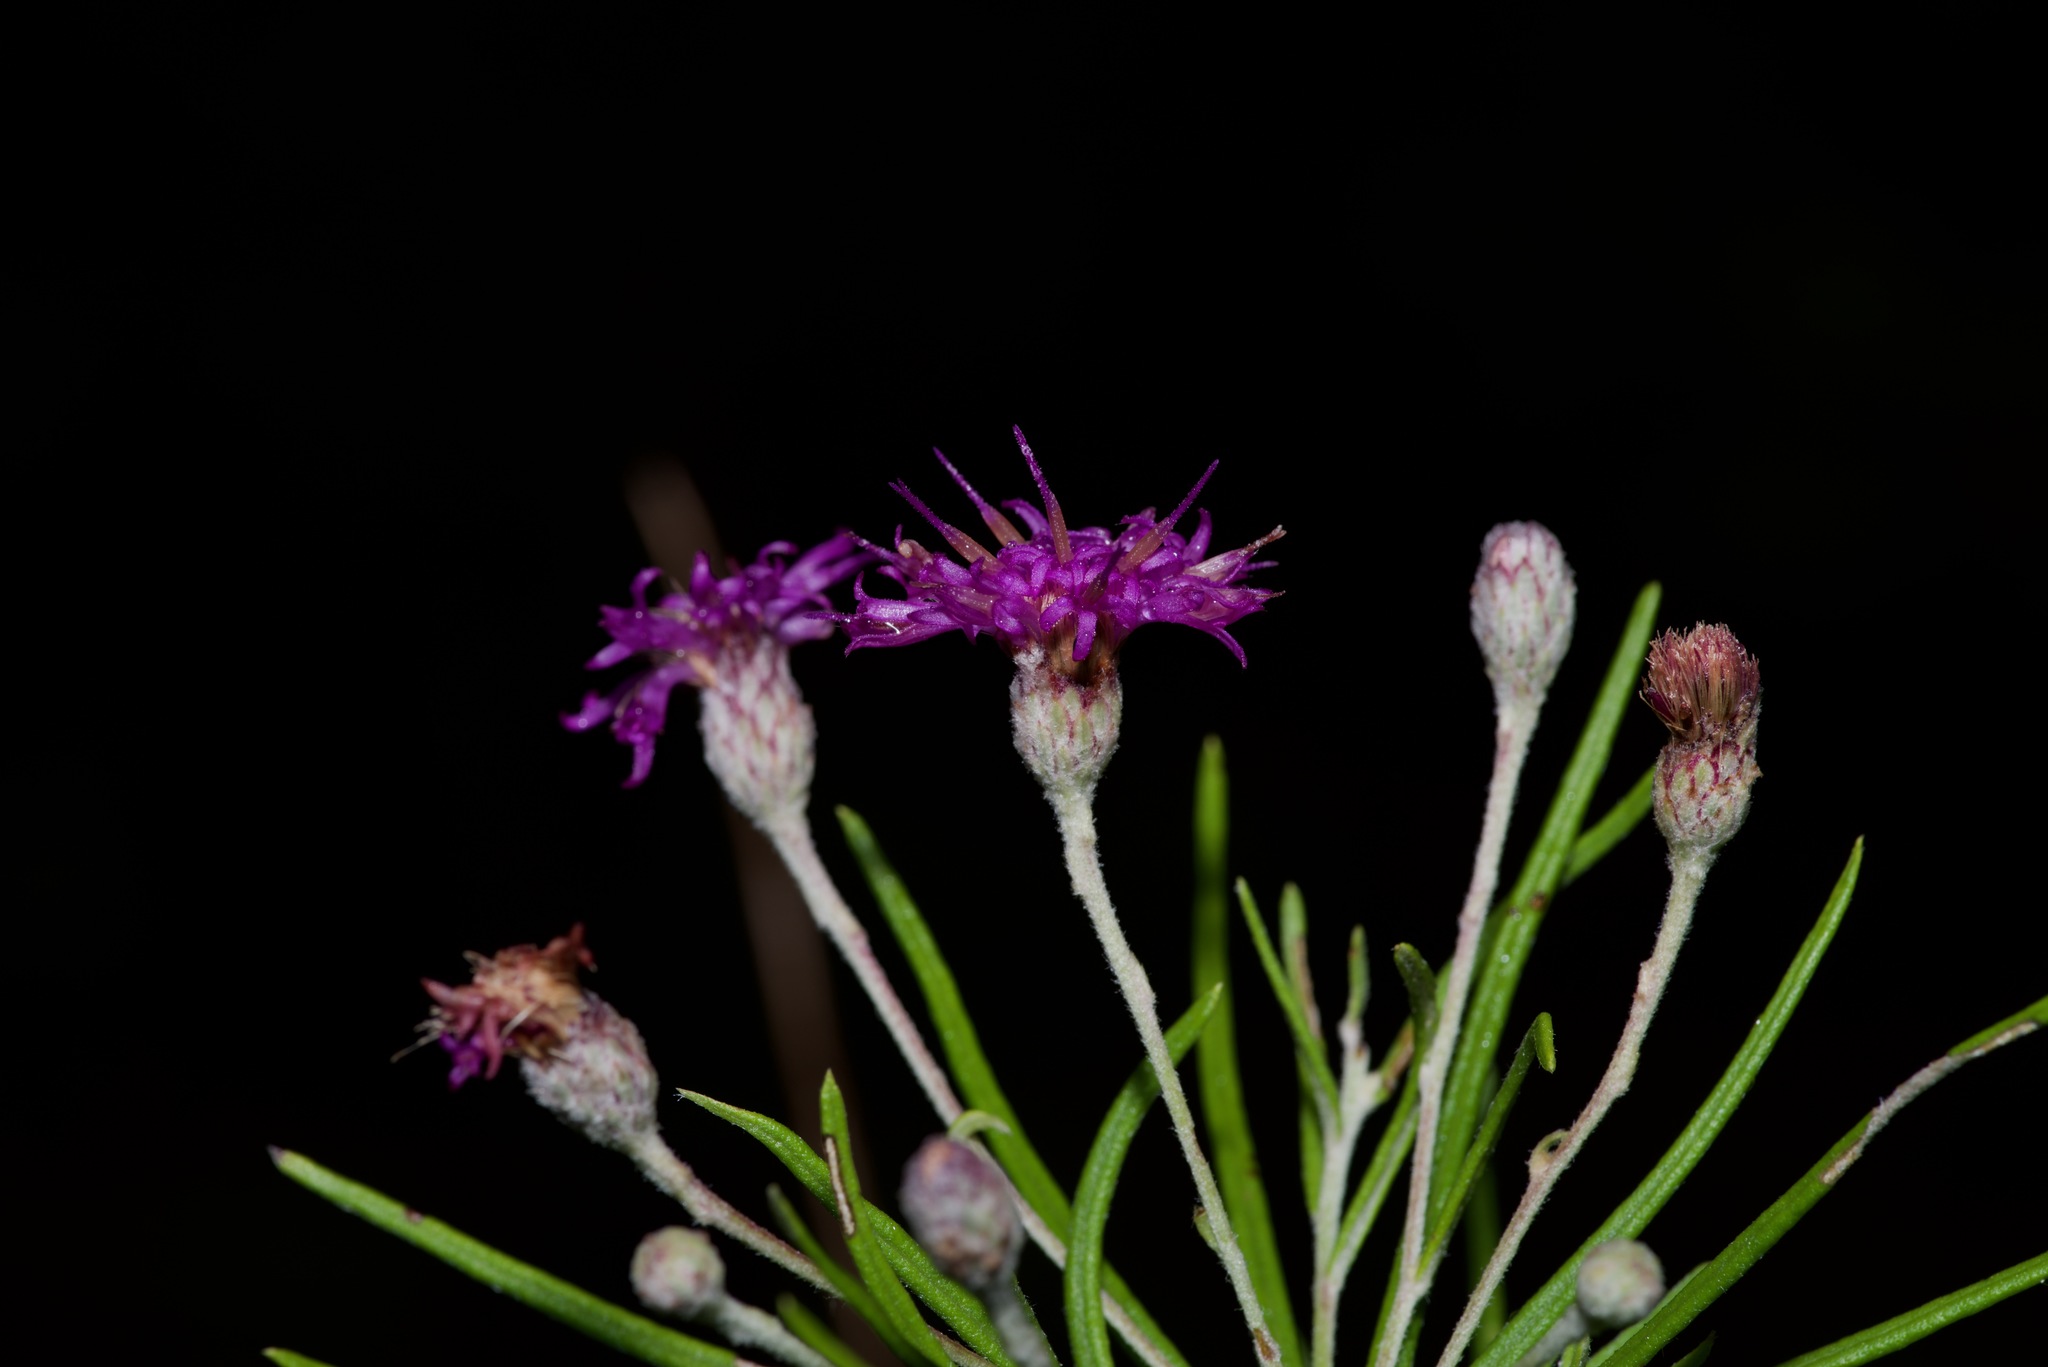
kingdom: Plantae
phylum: Tracheophyta
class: Magnoliopsida
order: Asterales
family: Asteraceae
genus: Vernonia
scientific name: Vernonia lindheimeri
